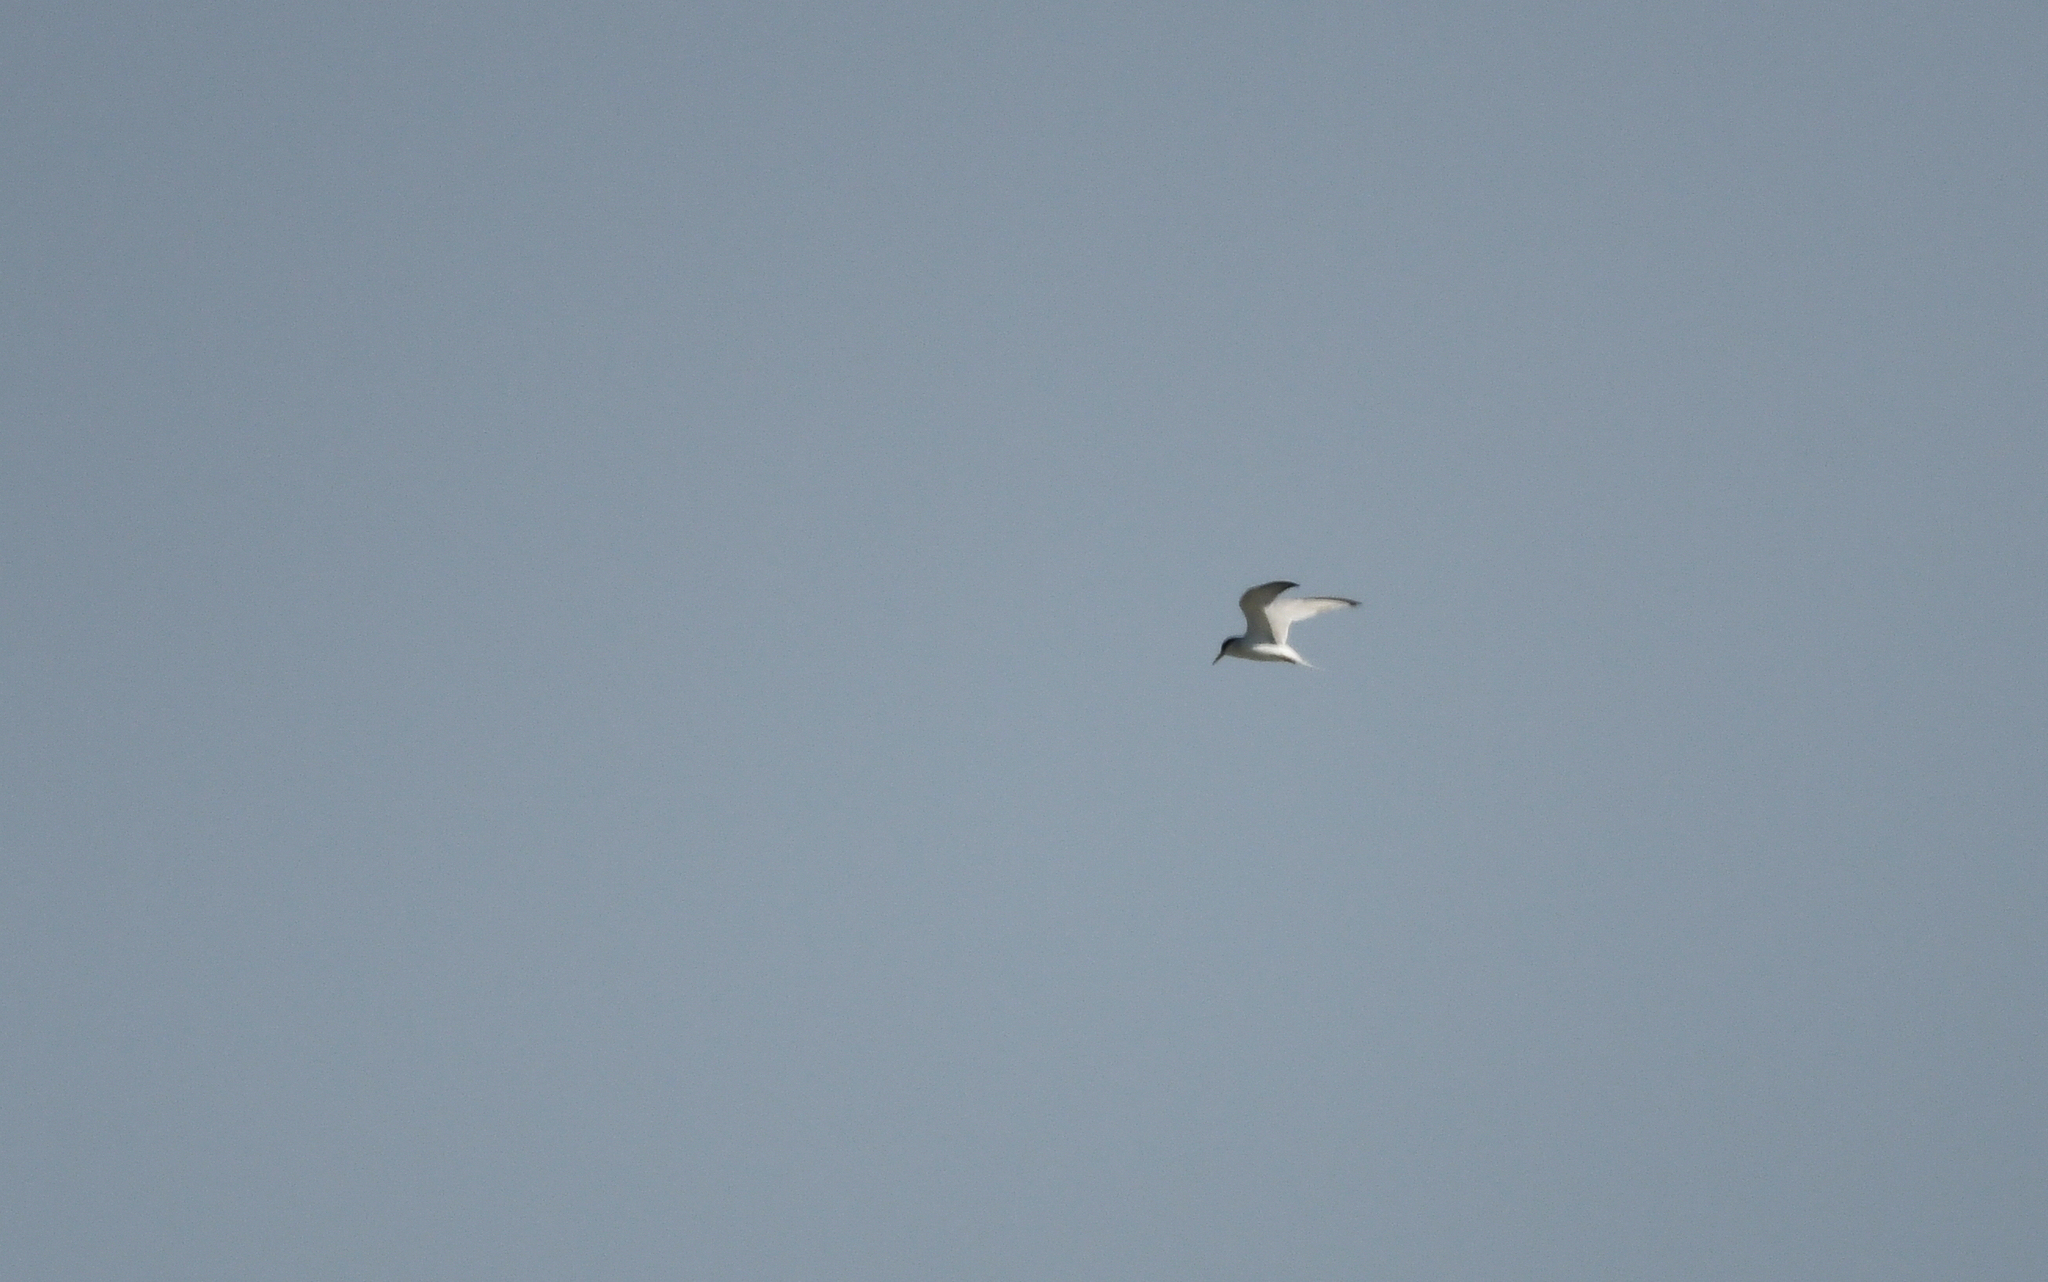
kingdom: Animalia
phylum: Chordata
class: Aves
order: Charadriiformes
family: Laridae
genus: Sternula
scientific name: Sternula albifrons
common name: Little tern
